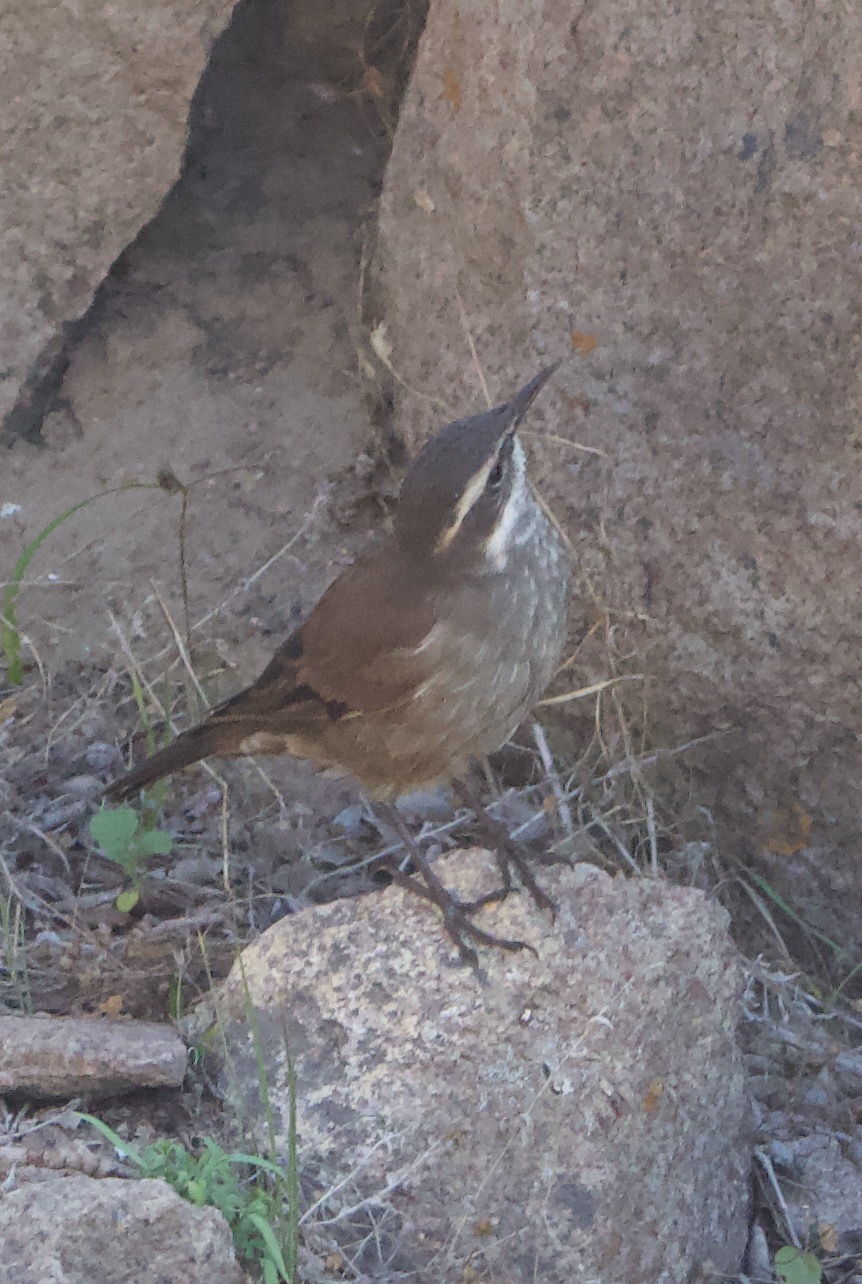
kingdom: Animalia
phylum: Chordata
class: Aves
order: Passeriformes
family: Furnariidae
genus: Cinclodes
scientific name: Cinclodes oustaleti
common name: Grey-flanked cinclodes
